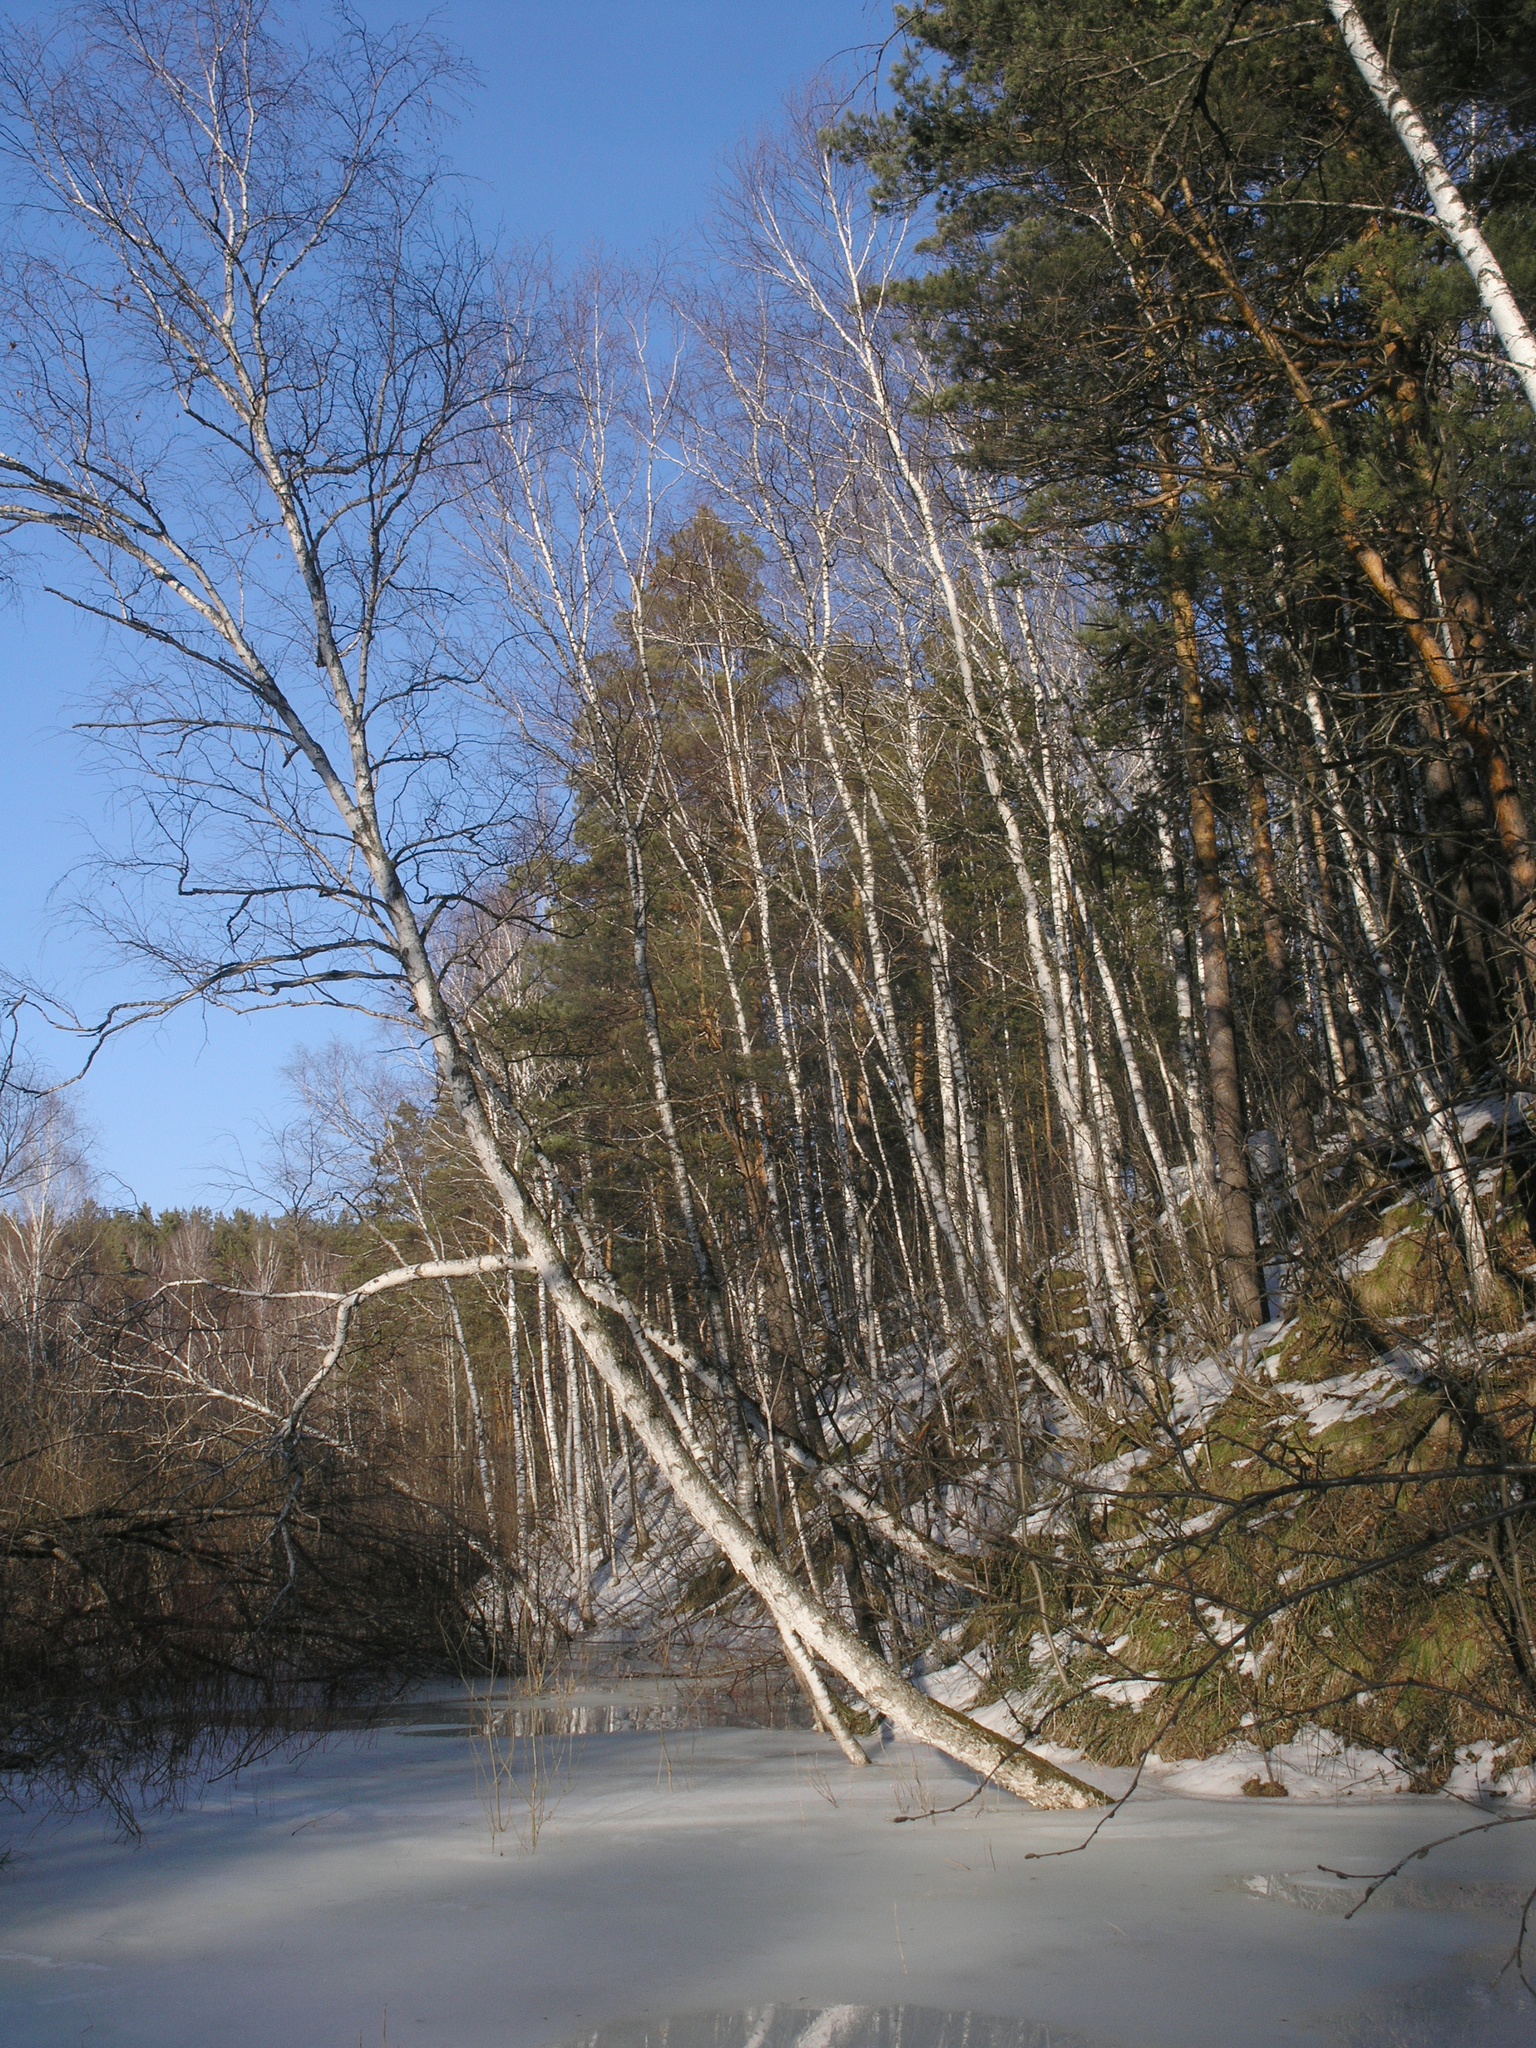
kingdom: Plantae
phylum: Tracheophyta
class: Magnoliopsida
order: Fagales
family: Betulaceae
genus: Betula
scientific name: Betula pendula
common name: Silver birch
